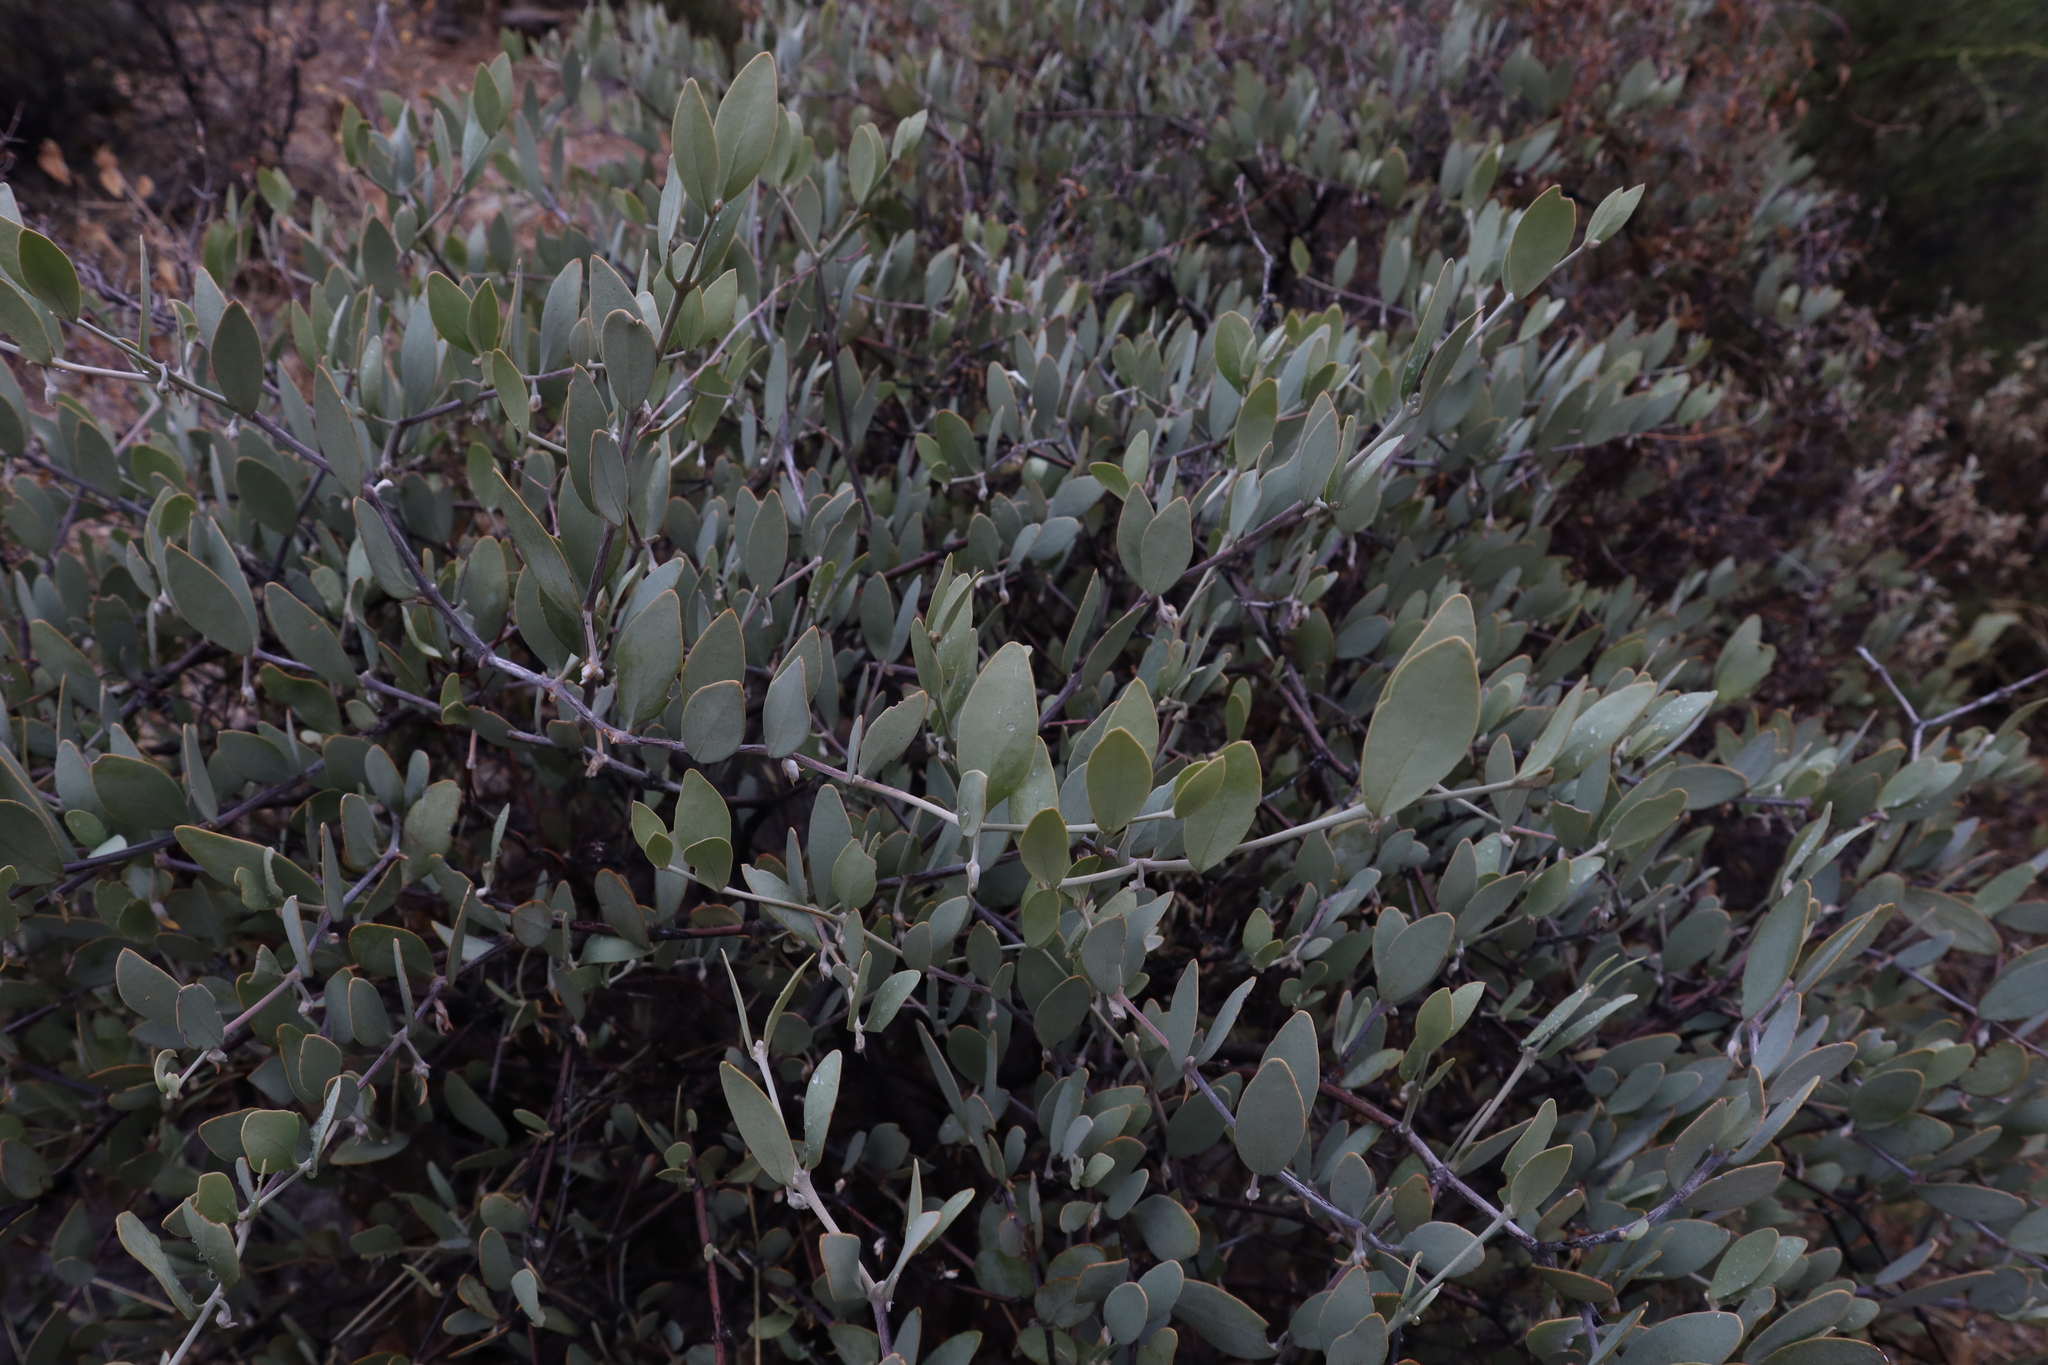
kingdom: Plantae
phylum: Tracheophyta
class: Magnoliopsida
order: Caryophyllales
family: Simmondsiaceae
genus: Simmondsia
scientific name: Simmondsia chinensis
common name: Jojoba
